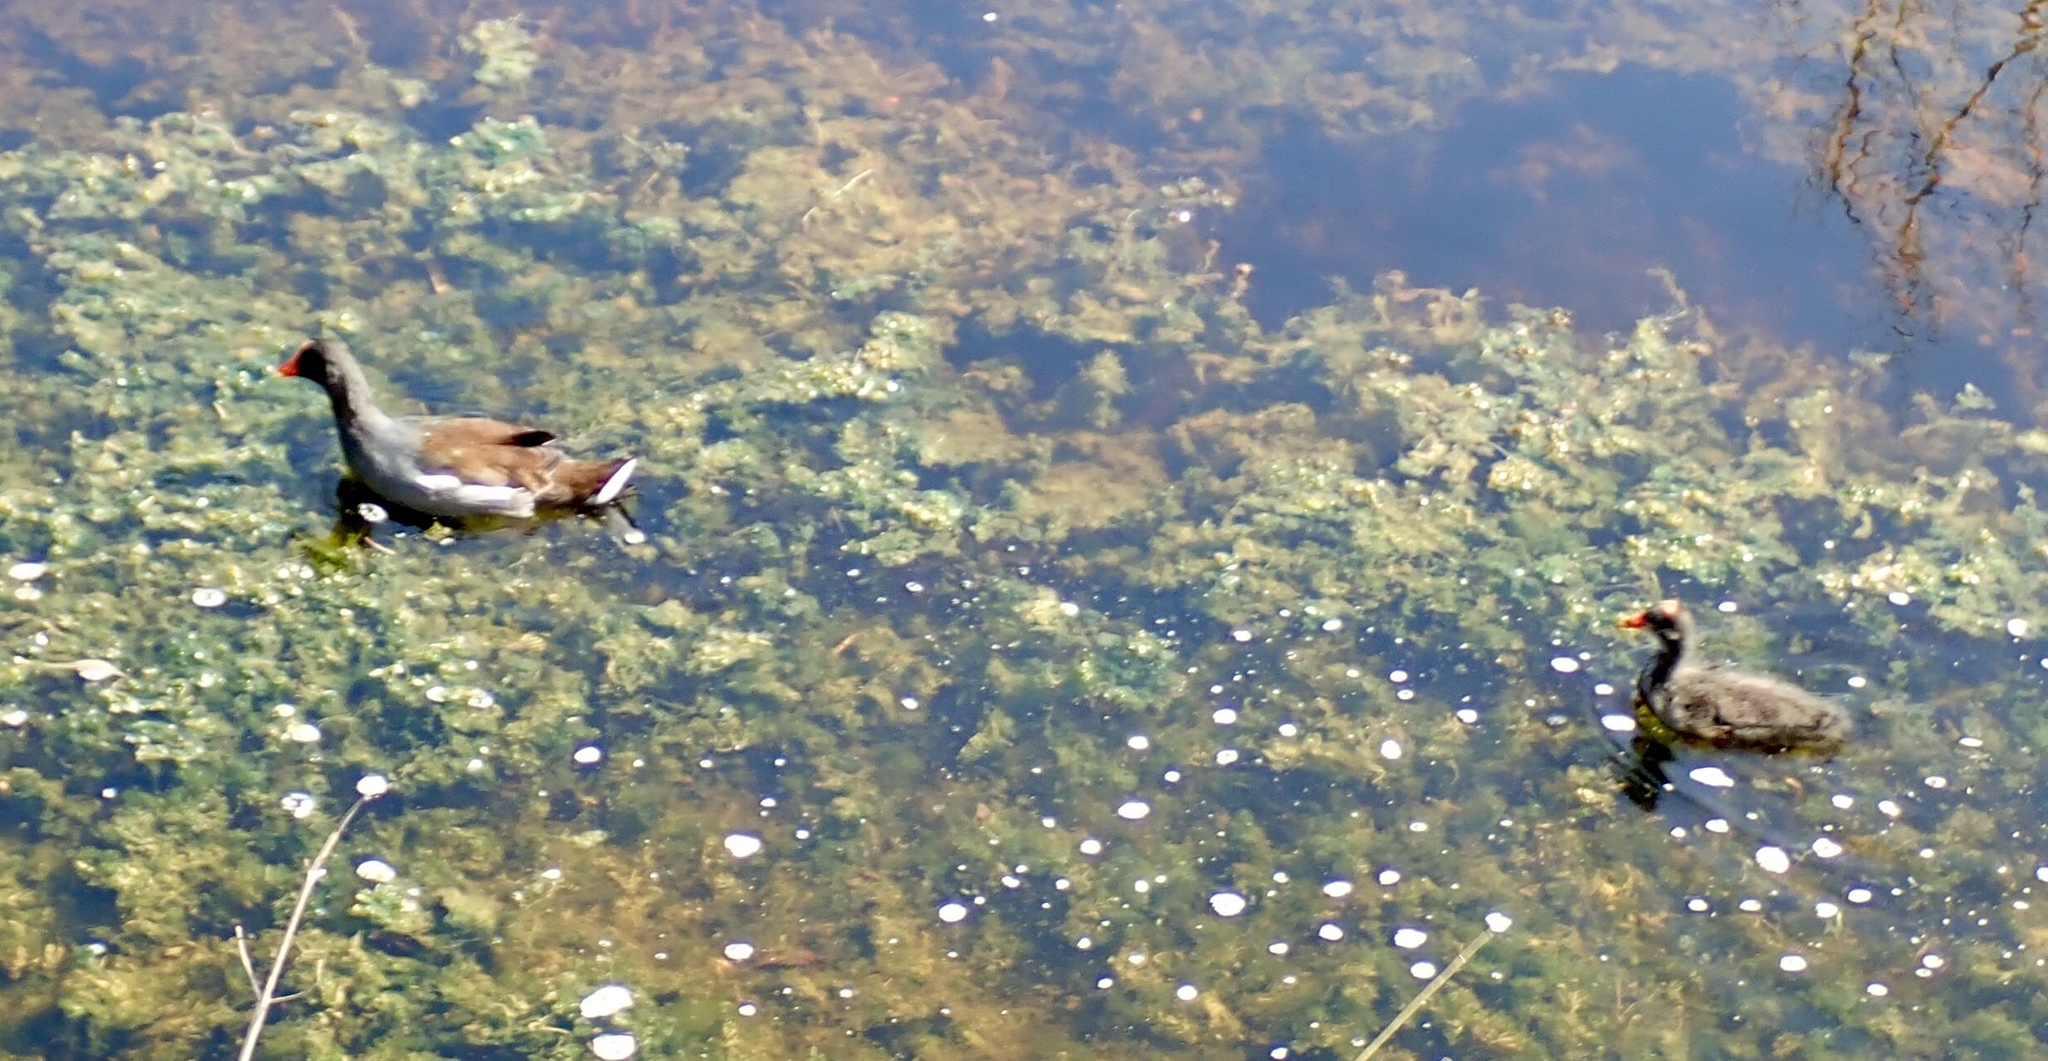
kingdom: Animalia
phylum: Chordata
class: Aves
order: Gruiformes
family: Rallidae
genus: Gallinula
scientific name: Gallinula chloropus
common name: Common moorhen
